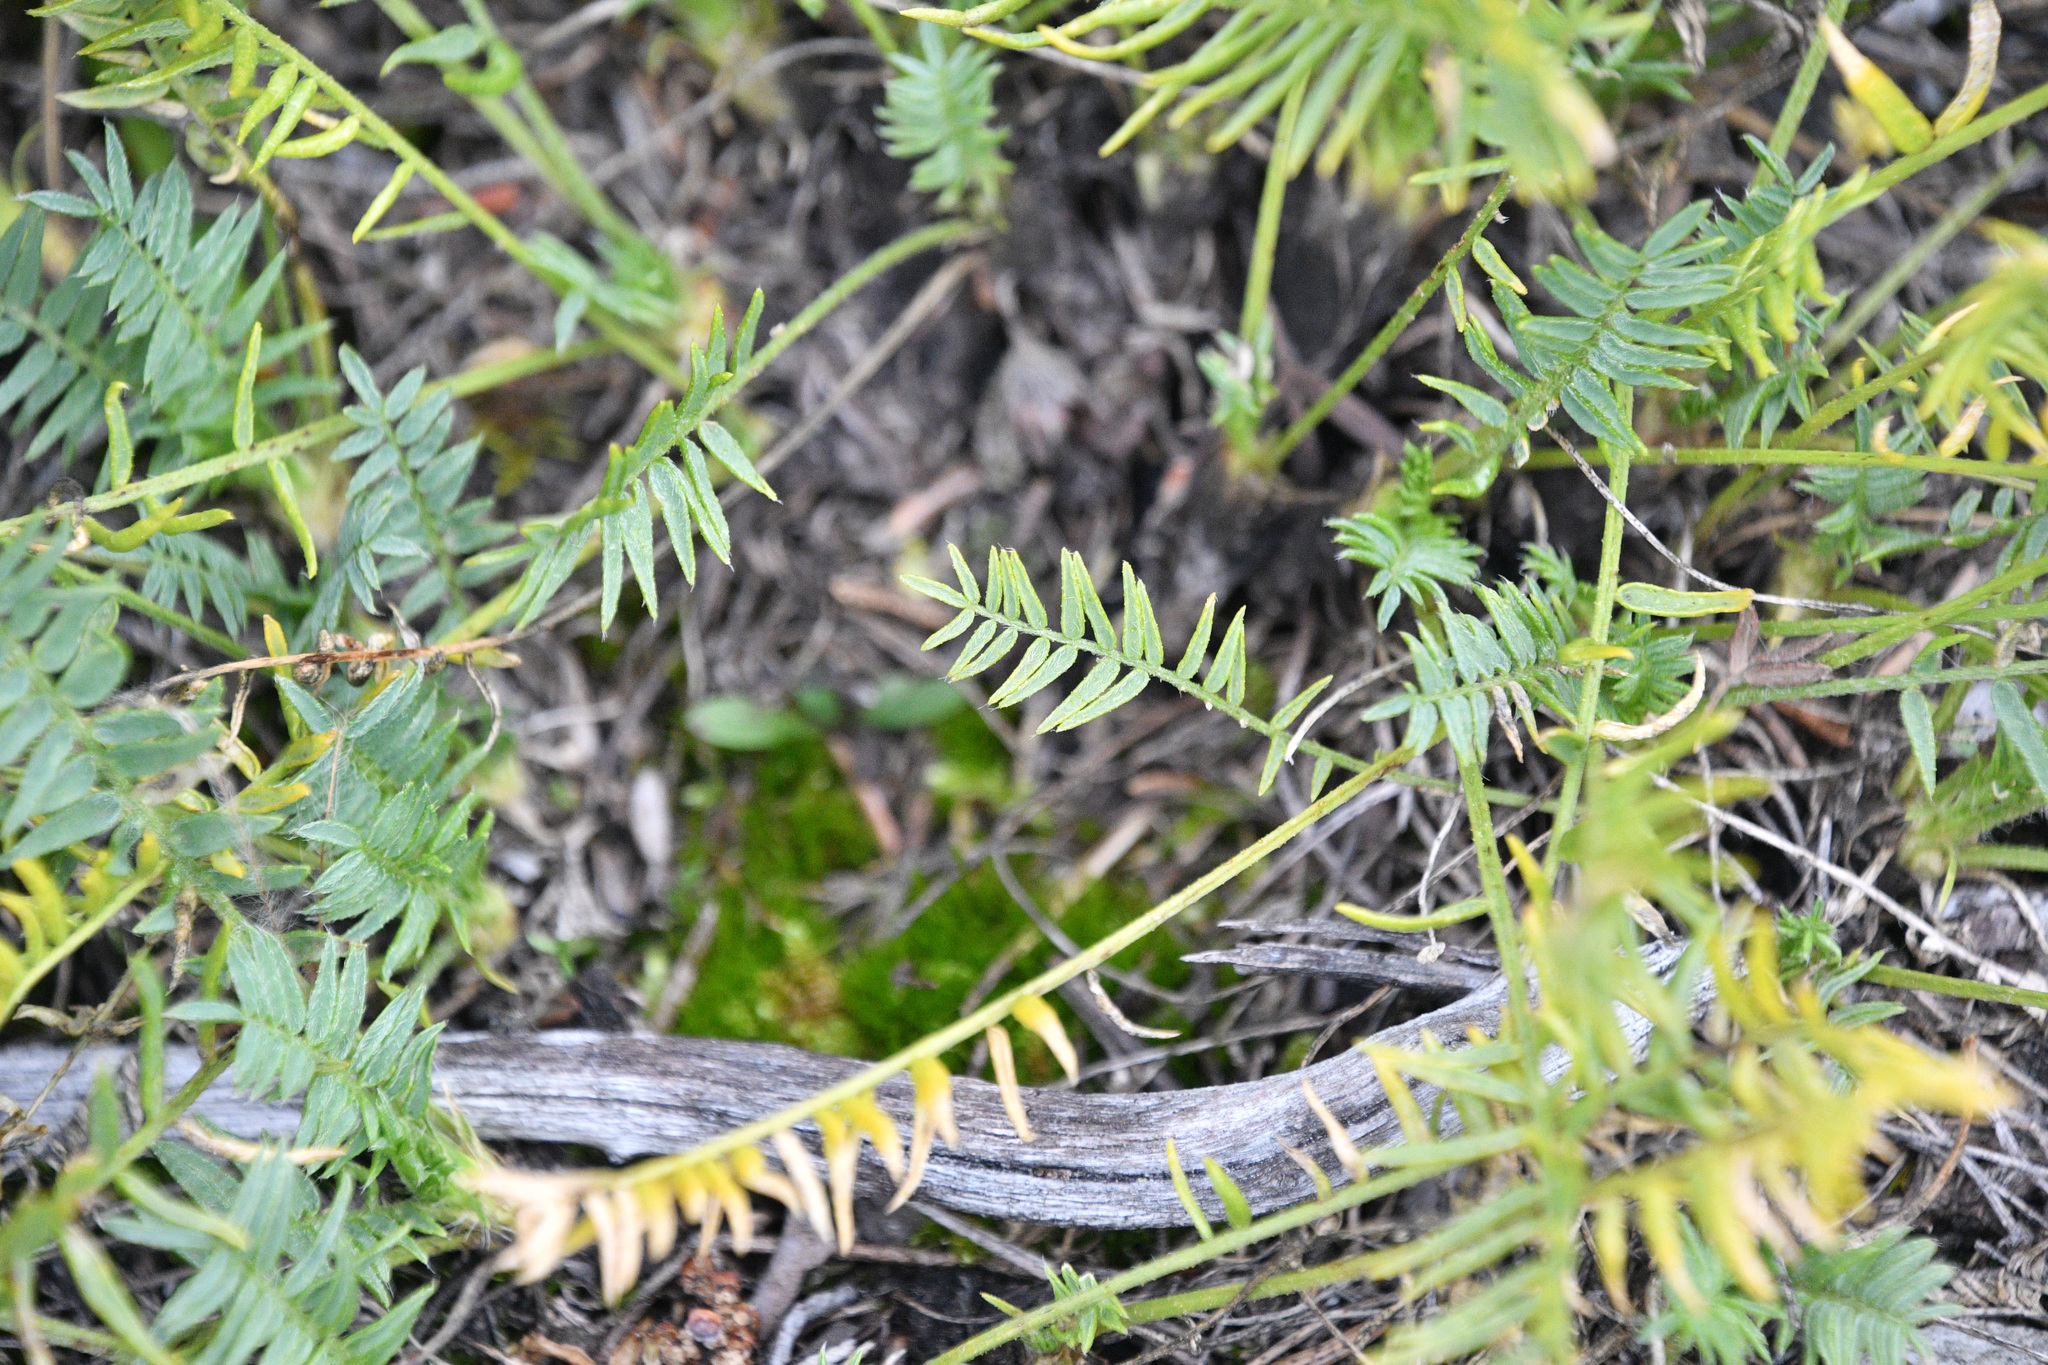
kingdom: Plantae
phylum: Tracheophyta
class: Magnoliopsida
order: Fabales
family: Fabaceae
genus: Oxytropis
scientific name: Oxytropis borealis
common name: Boreal locoweed
